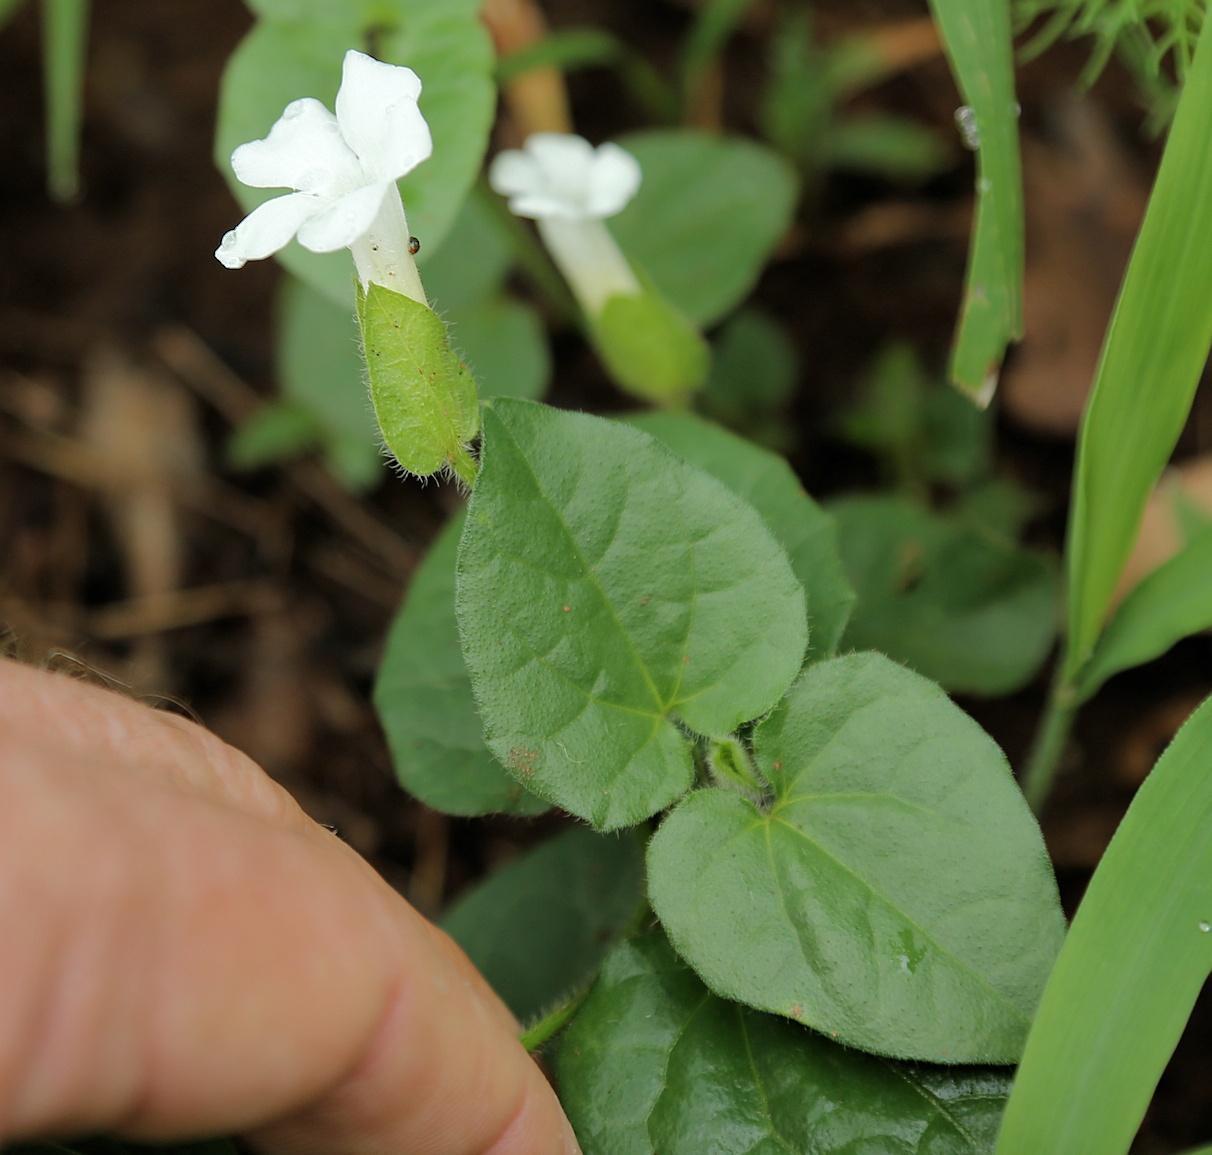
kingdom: Plantae
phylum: Tracheophyta
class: Magnoliopsida
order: Lamiales
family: Acanthaceae
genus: Thunbergia
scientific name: Thunbergia amoena
